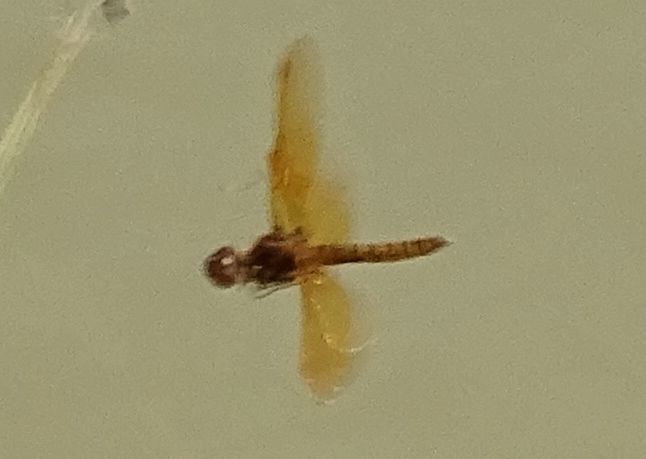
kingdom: Animalia
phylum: Arthropoda
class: Insecta
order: Odonata
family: Libellulidae
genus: Perithemis
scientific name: Perithemis tenera
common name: Eastern amberwing
